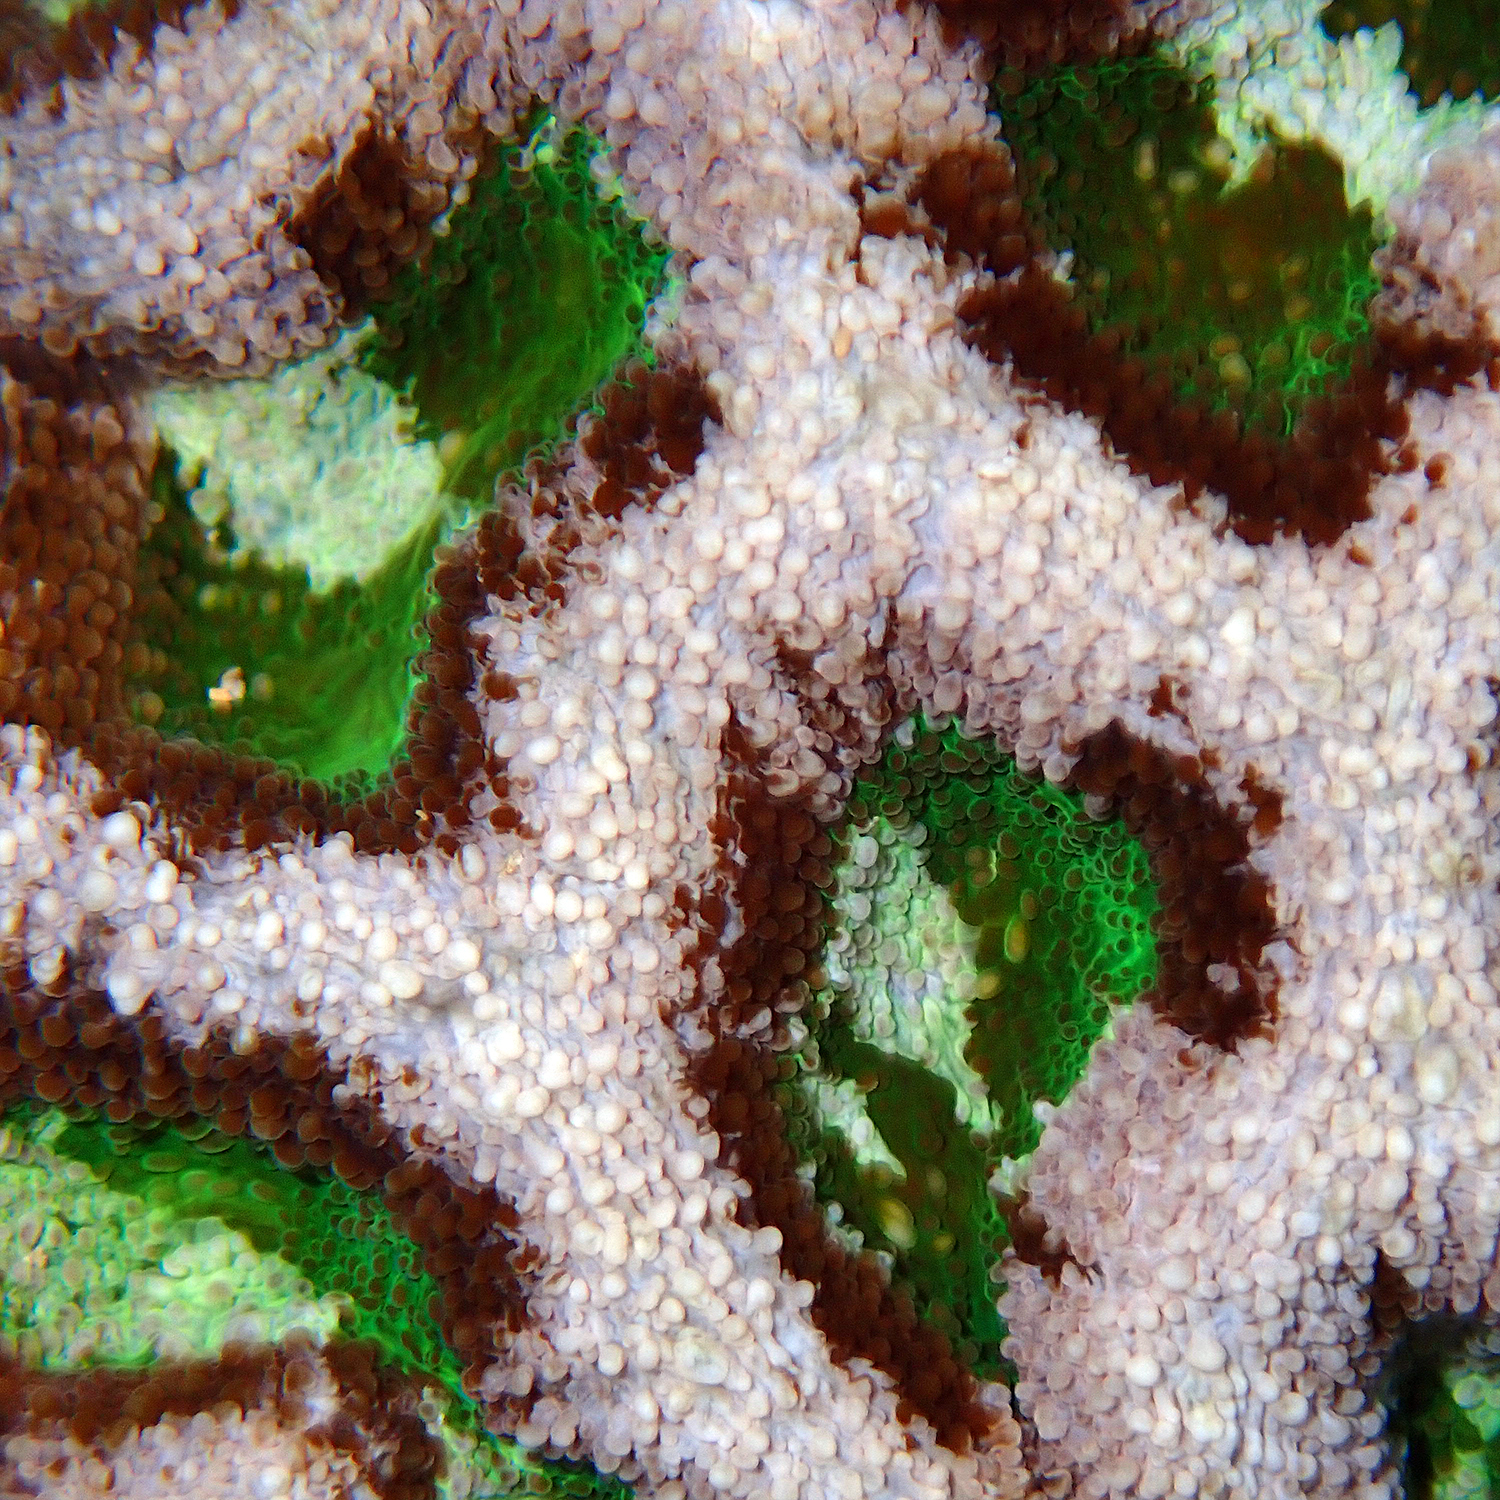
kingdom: Animalia
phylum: Cnidaria
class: Anthozoa
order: Scleractinia
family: Lobophylliidae
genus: Homophyllia
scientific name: Homophyllia bowerbanki
